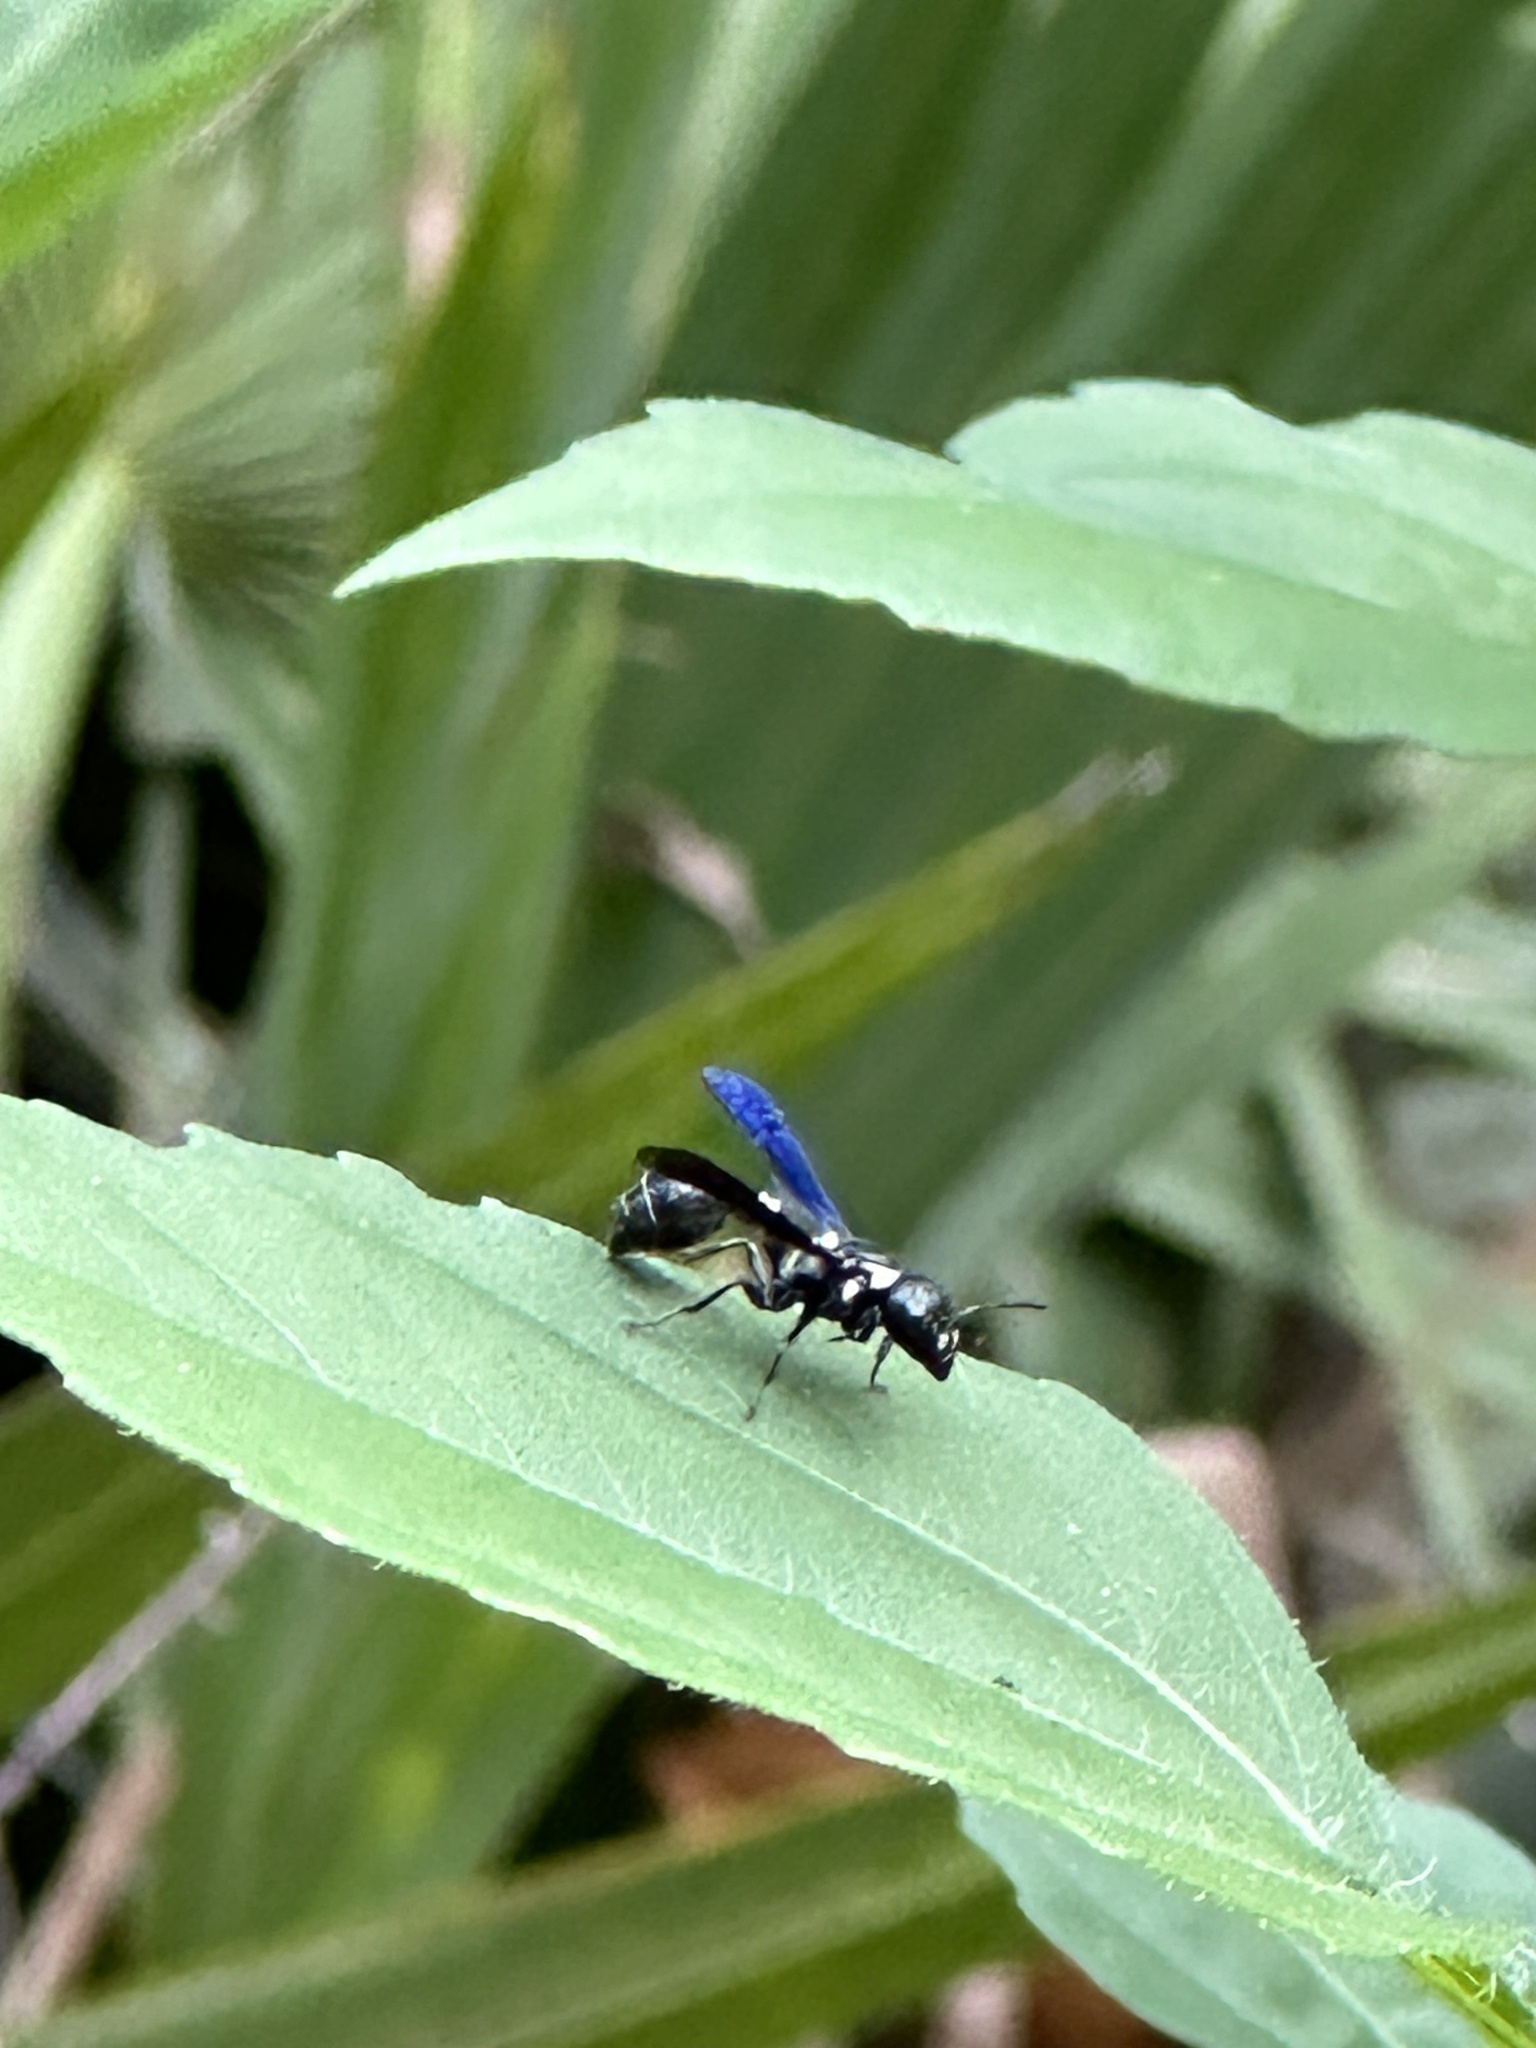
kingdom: Animalia
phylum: Arthropoda
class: Insecta
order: Hymenoptera
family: Eumenidae
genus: Zethus
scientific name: Zethus spinipes
